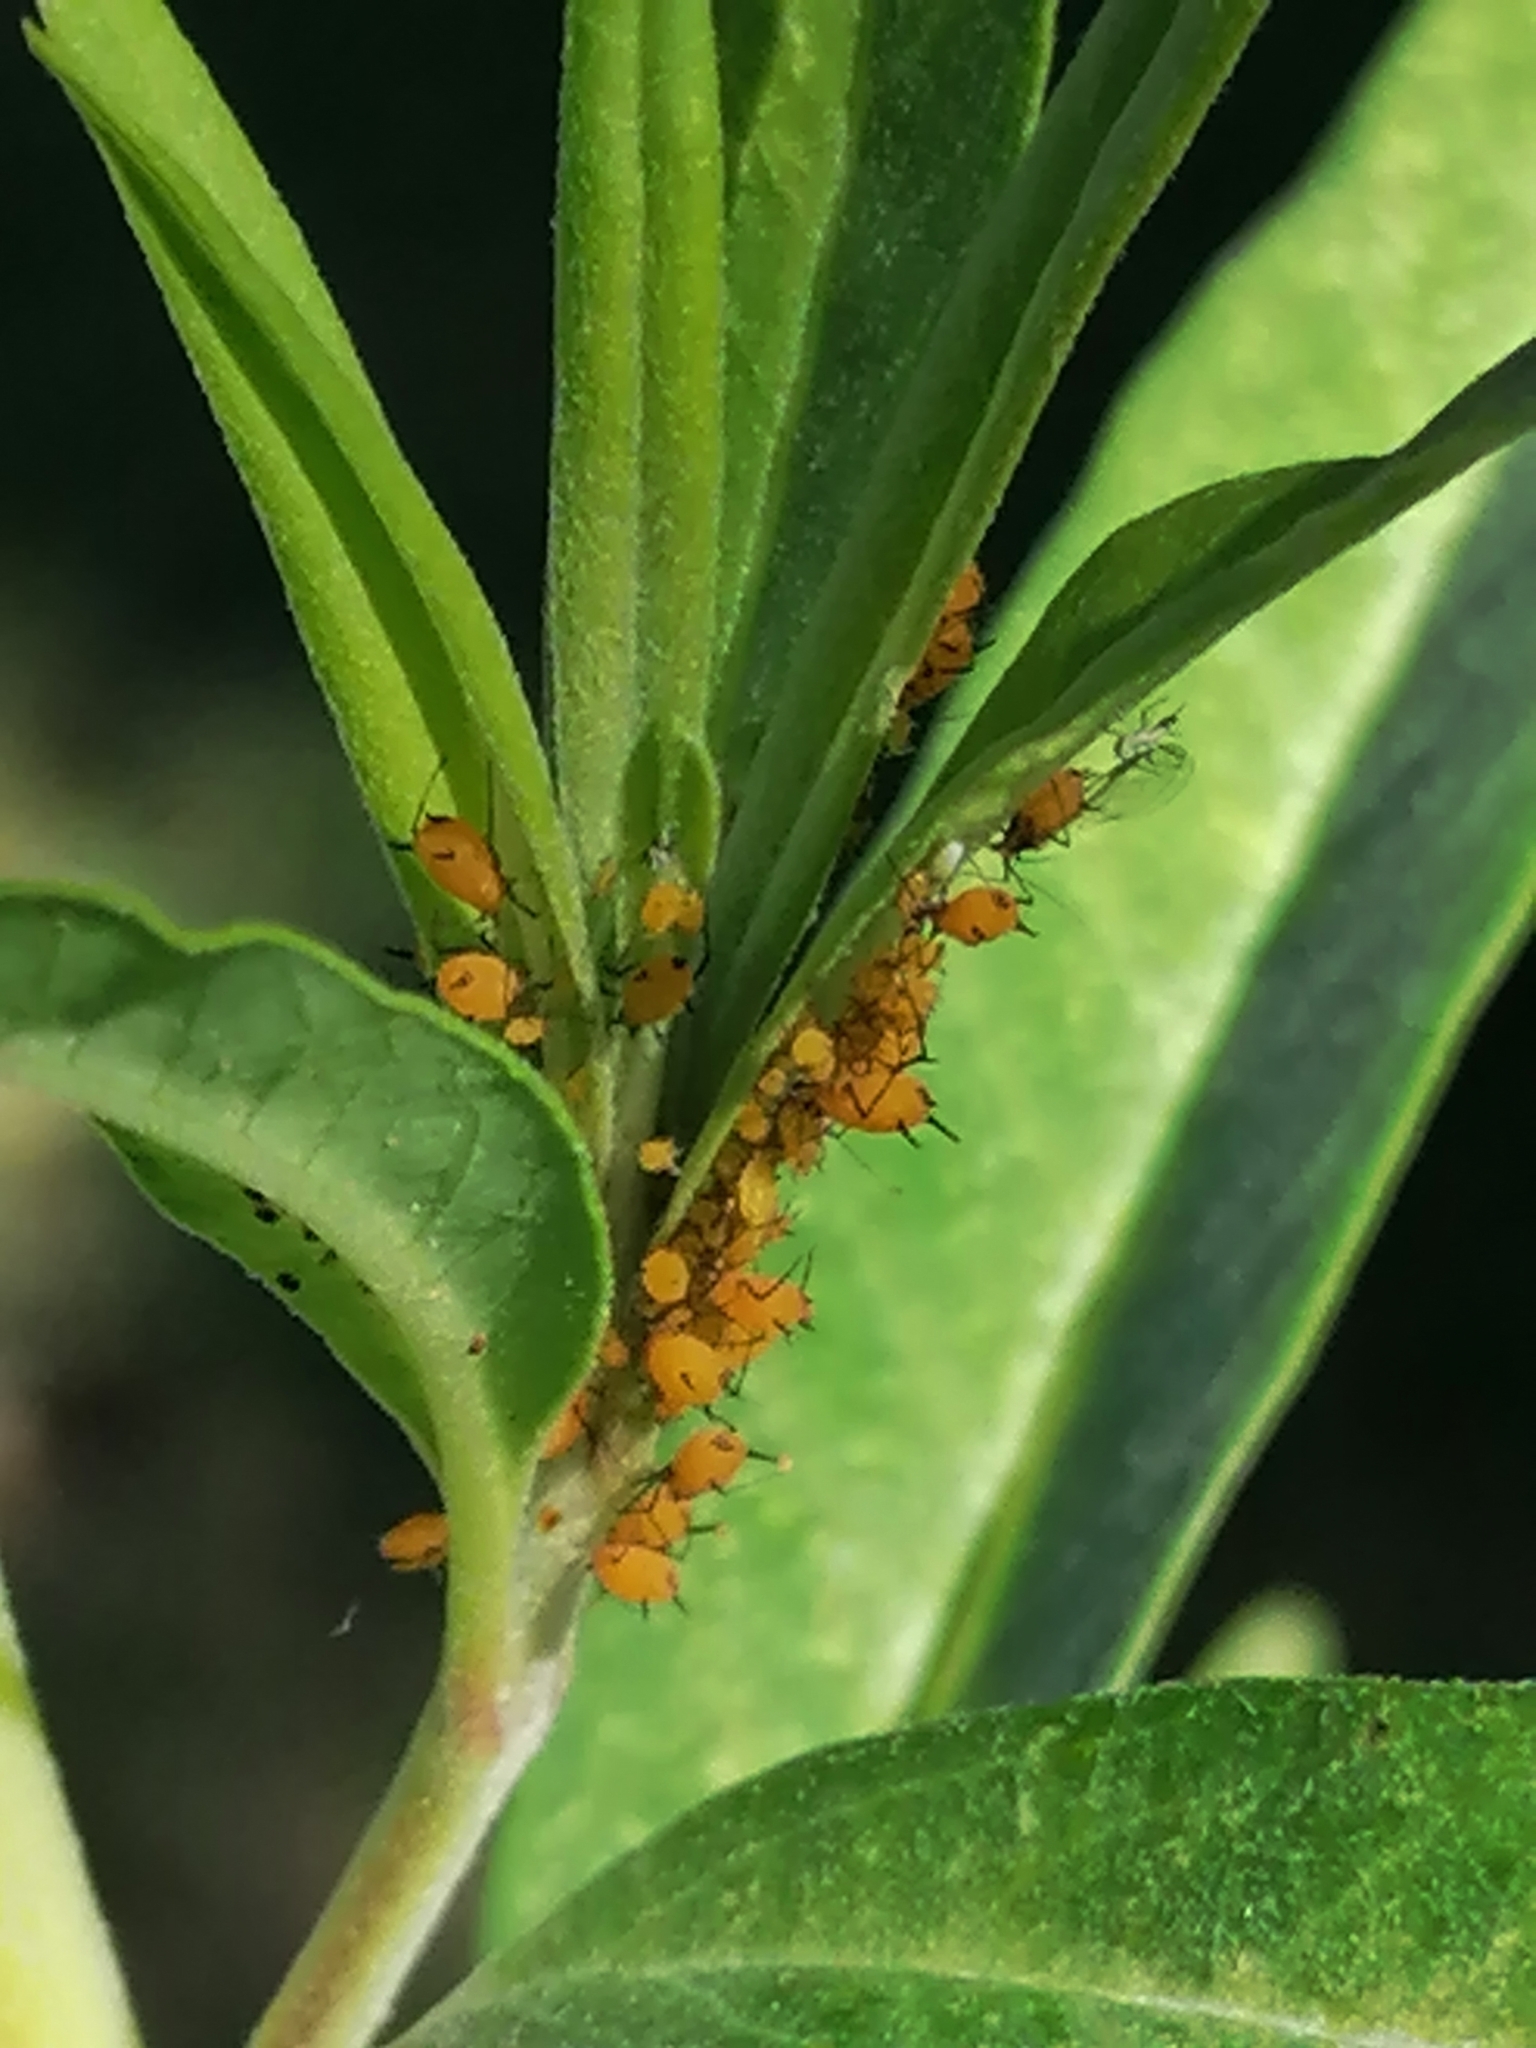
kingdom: Animalia
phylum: Arthropoda
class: Insecta
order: Hemiptera
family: Aphididae
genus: Aphis
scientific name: Aphis nerii
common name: Oleander aphid
